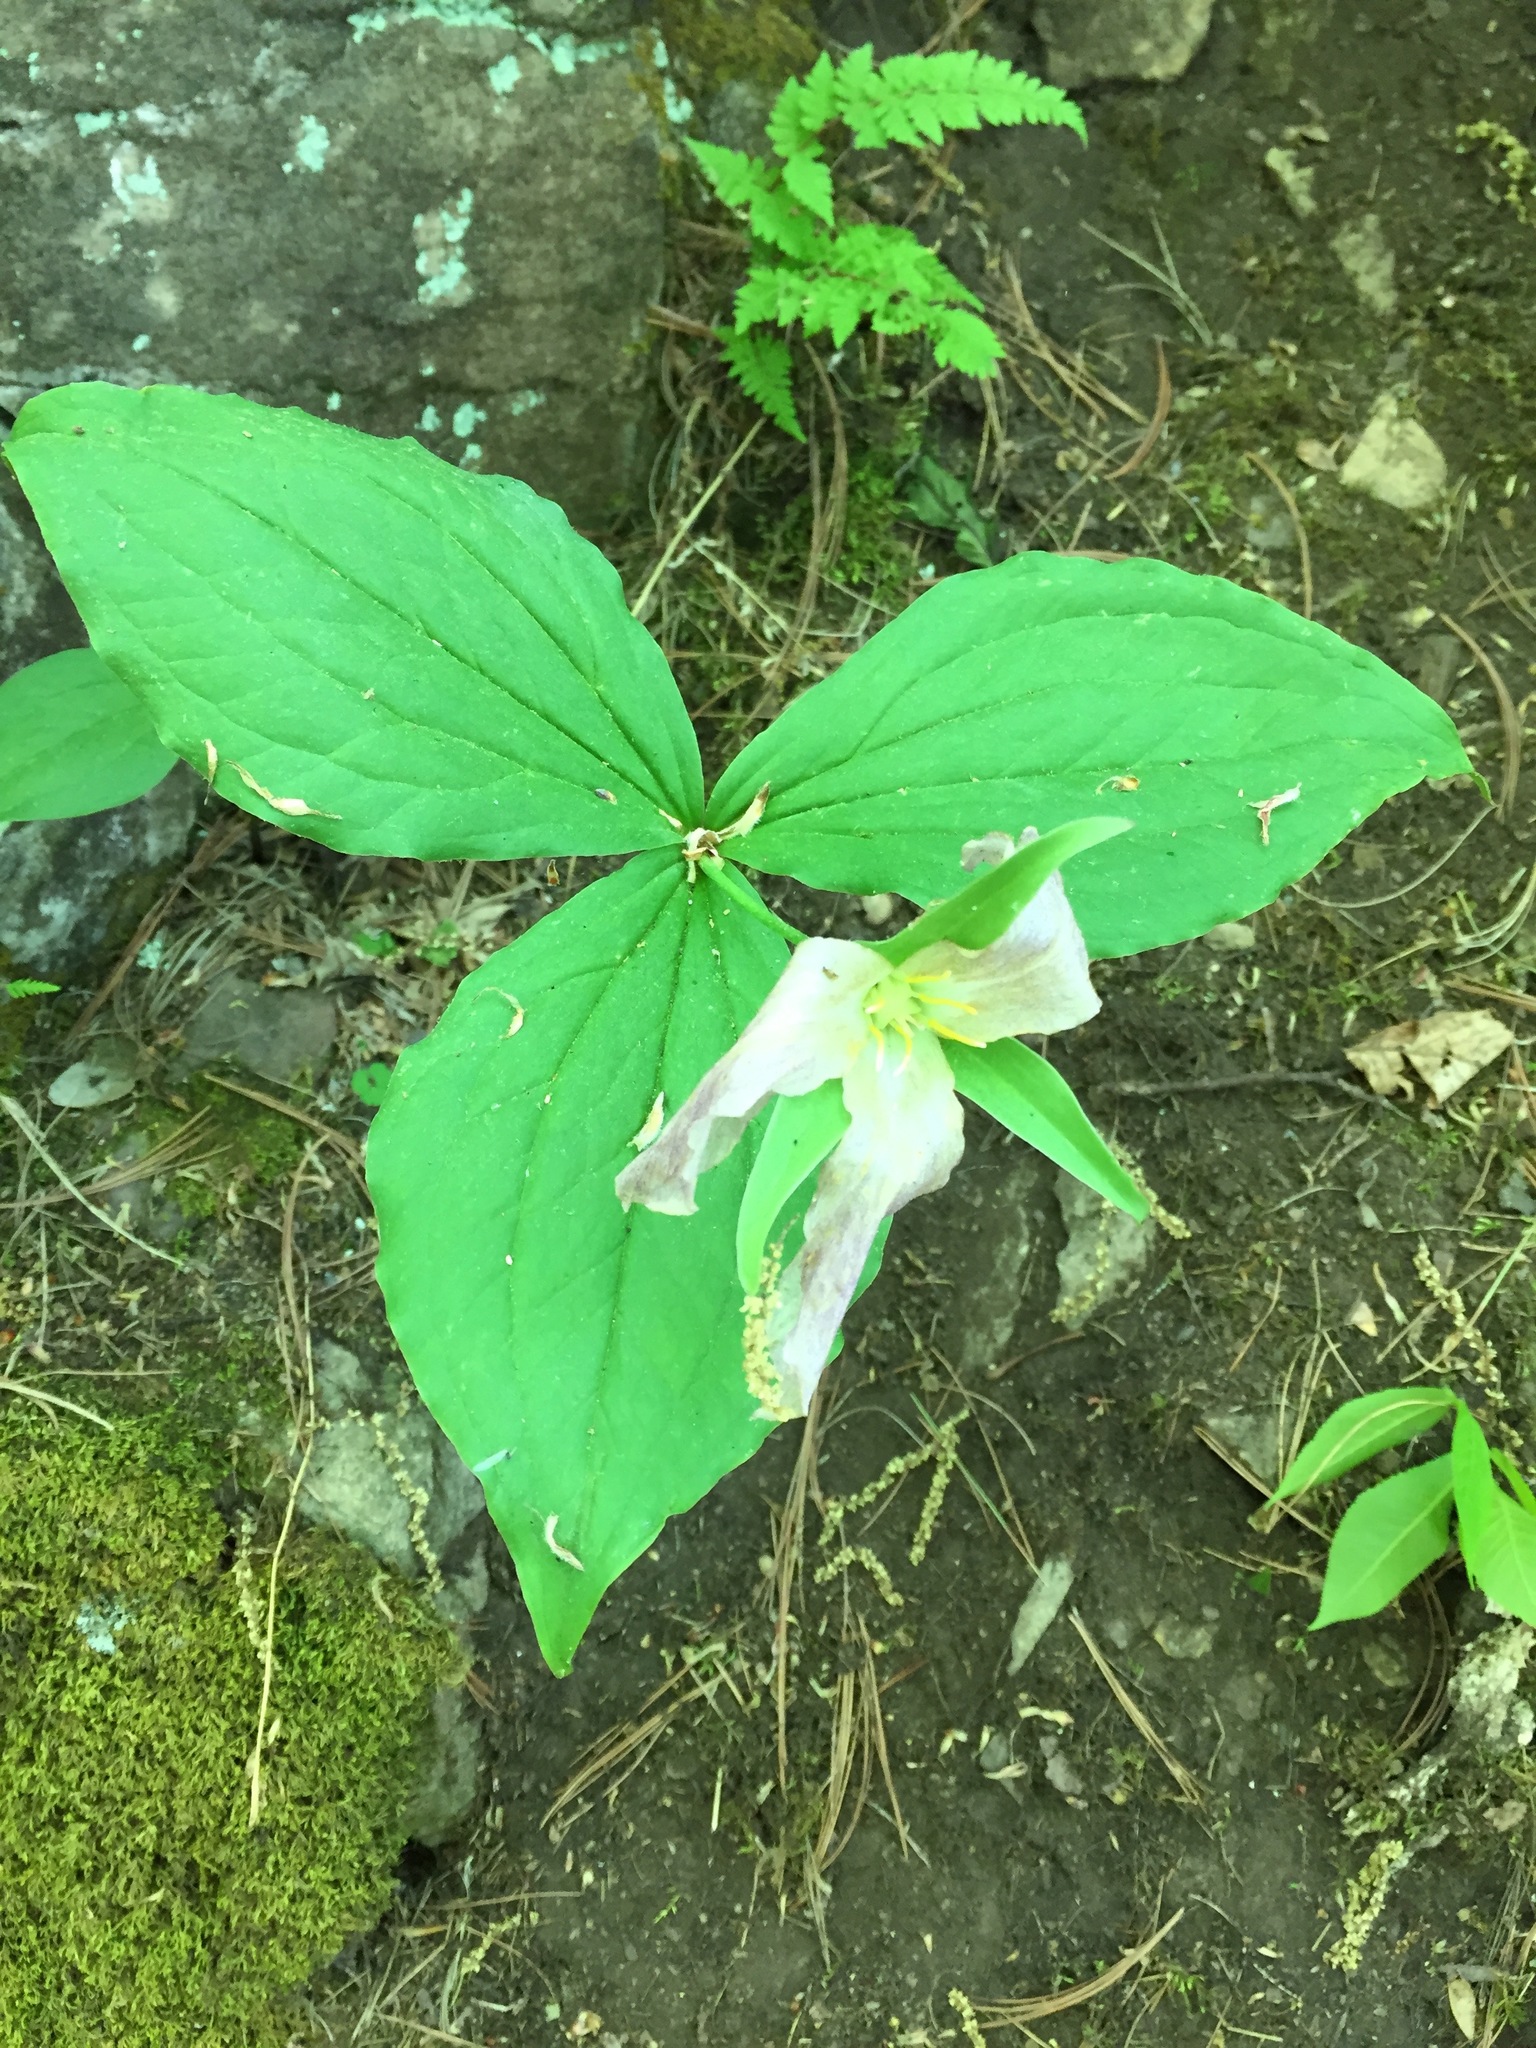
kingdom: Plantae
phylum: Tracheophyta
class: Liliopsida
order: Liliales
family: Melanthiaceae
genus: Trillium
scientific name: Trillium grandiflorum
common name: Great white trillium
